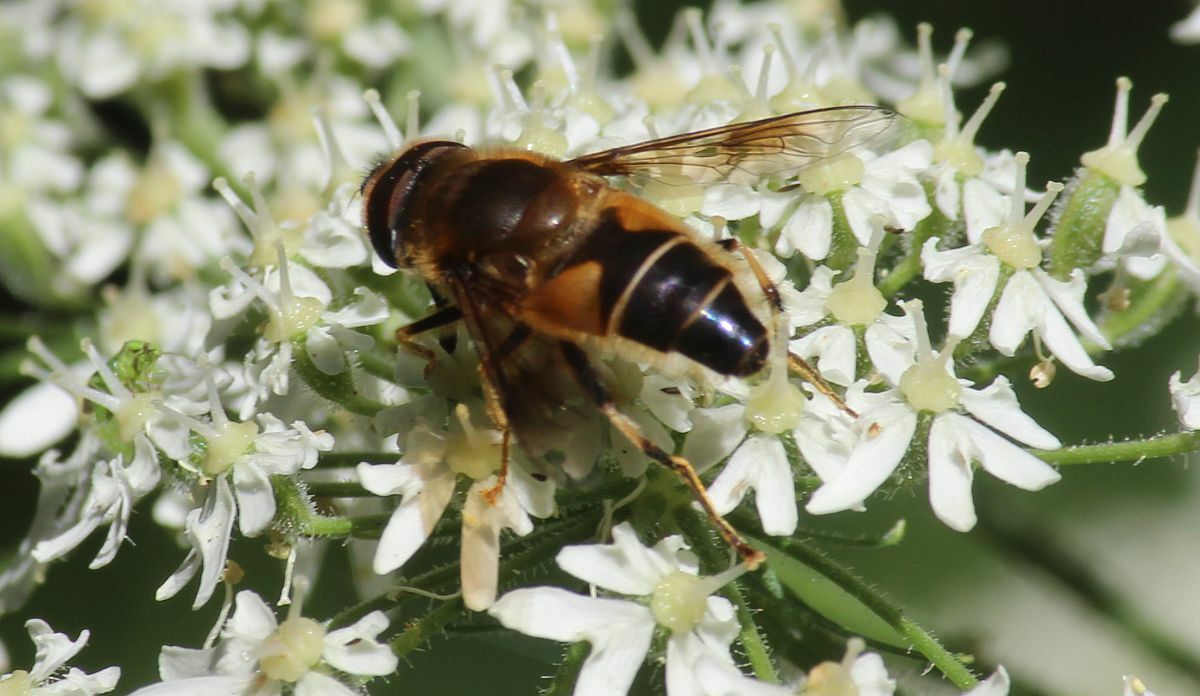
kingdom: Animalia
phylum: Arthropoda
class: Insecta
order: Diptera
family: Syrphidae
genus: Eristalis
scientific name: Eristalis pertinax
